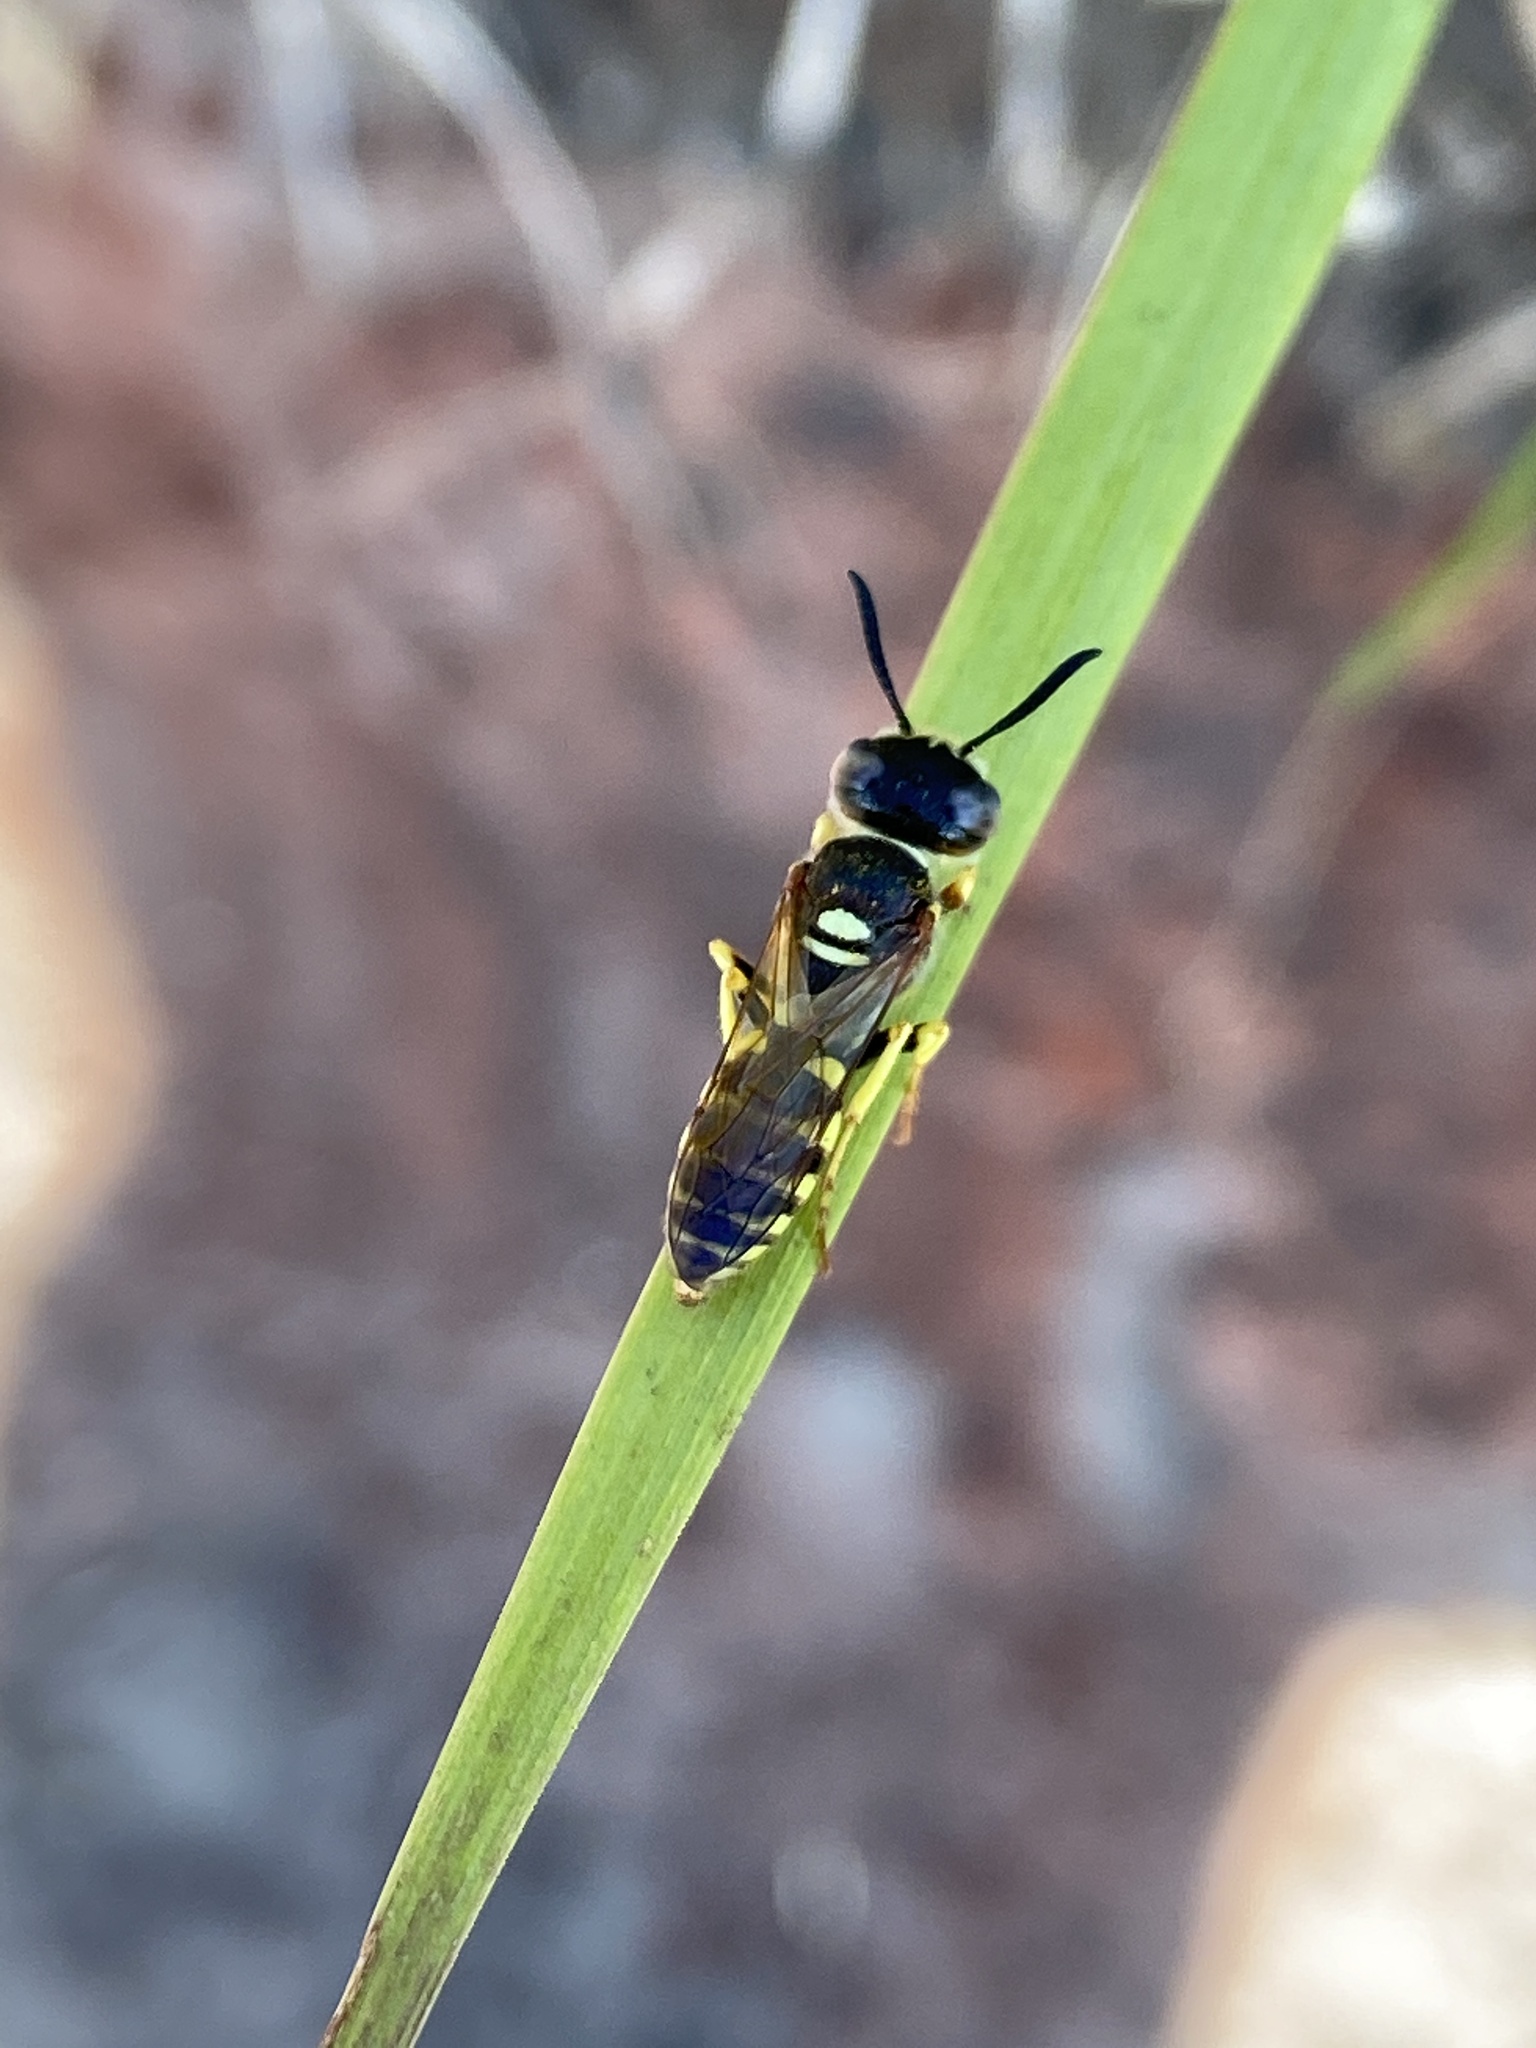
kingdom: Animalia
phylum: Arthropoda
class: Insecta
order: Hymenoptera
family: Crabronidae
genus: Philanthus
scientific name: Philanthus triangulum
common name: Bee wolf
